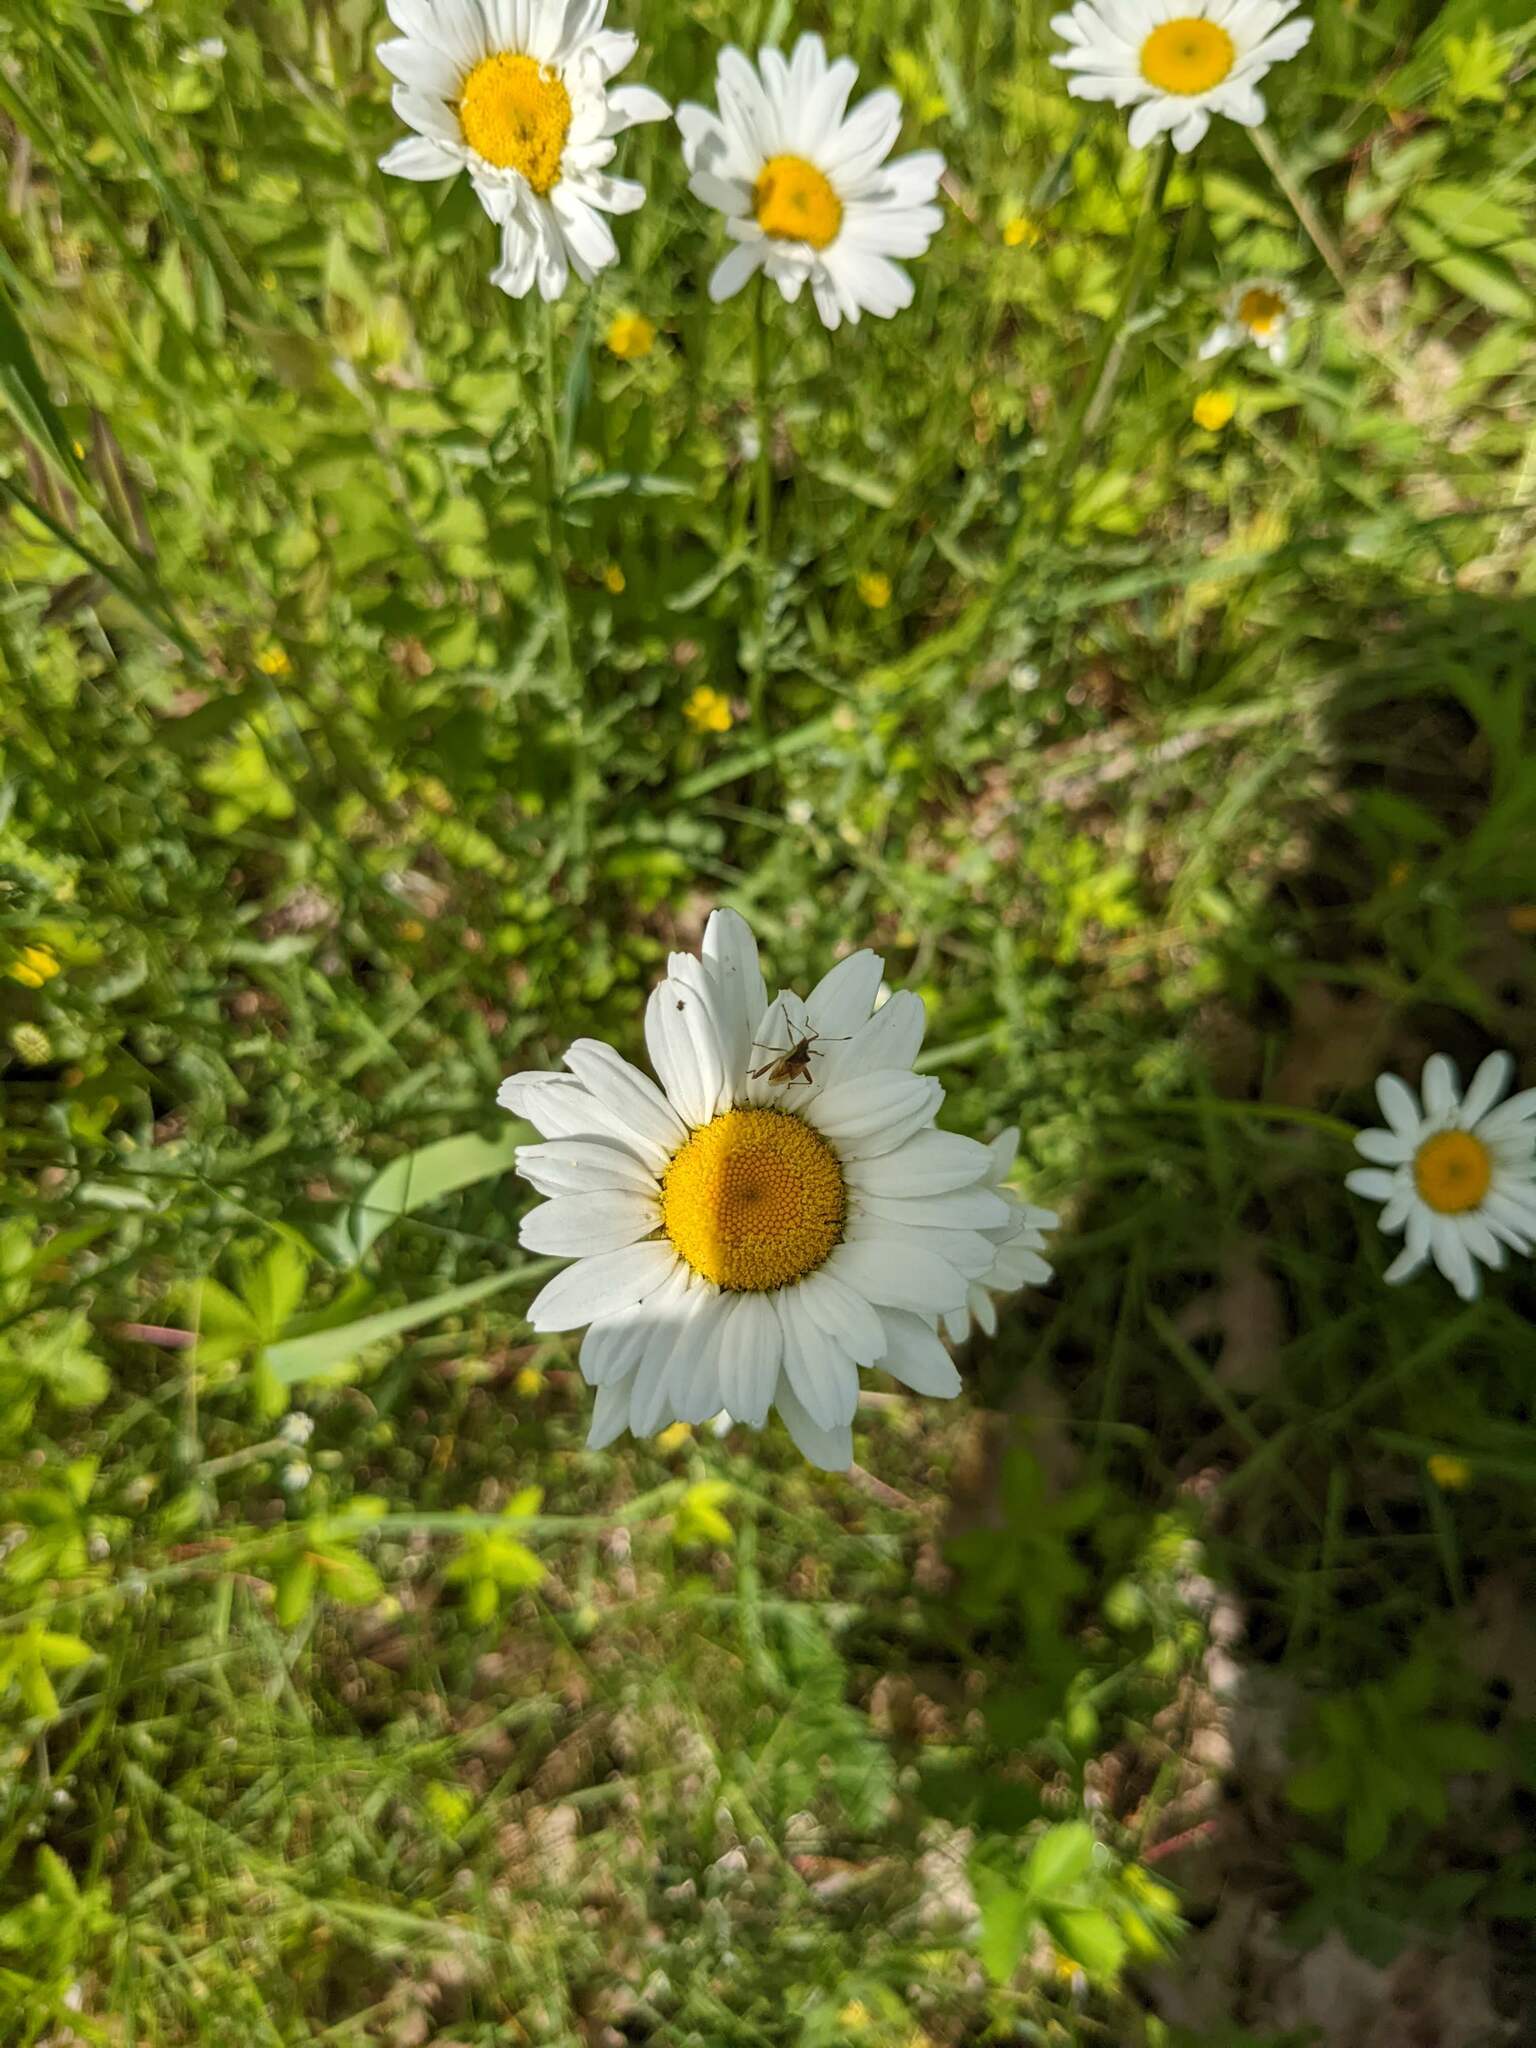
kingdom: Plantae
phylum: Tracheophyta
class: Magnoliopsida
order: Asterales
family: Asteraceae
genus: Leucanthemum
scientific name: Leucanthemum vulgare
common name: Oxeye daisy
